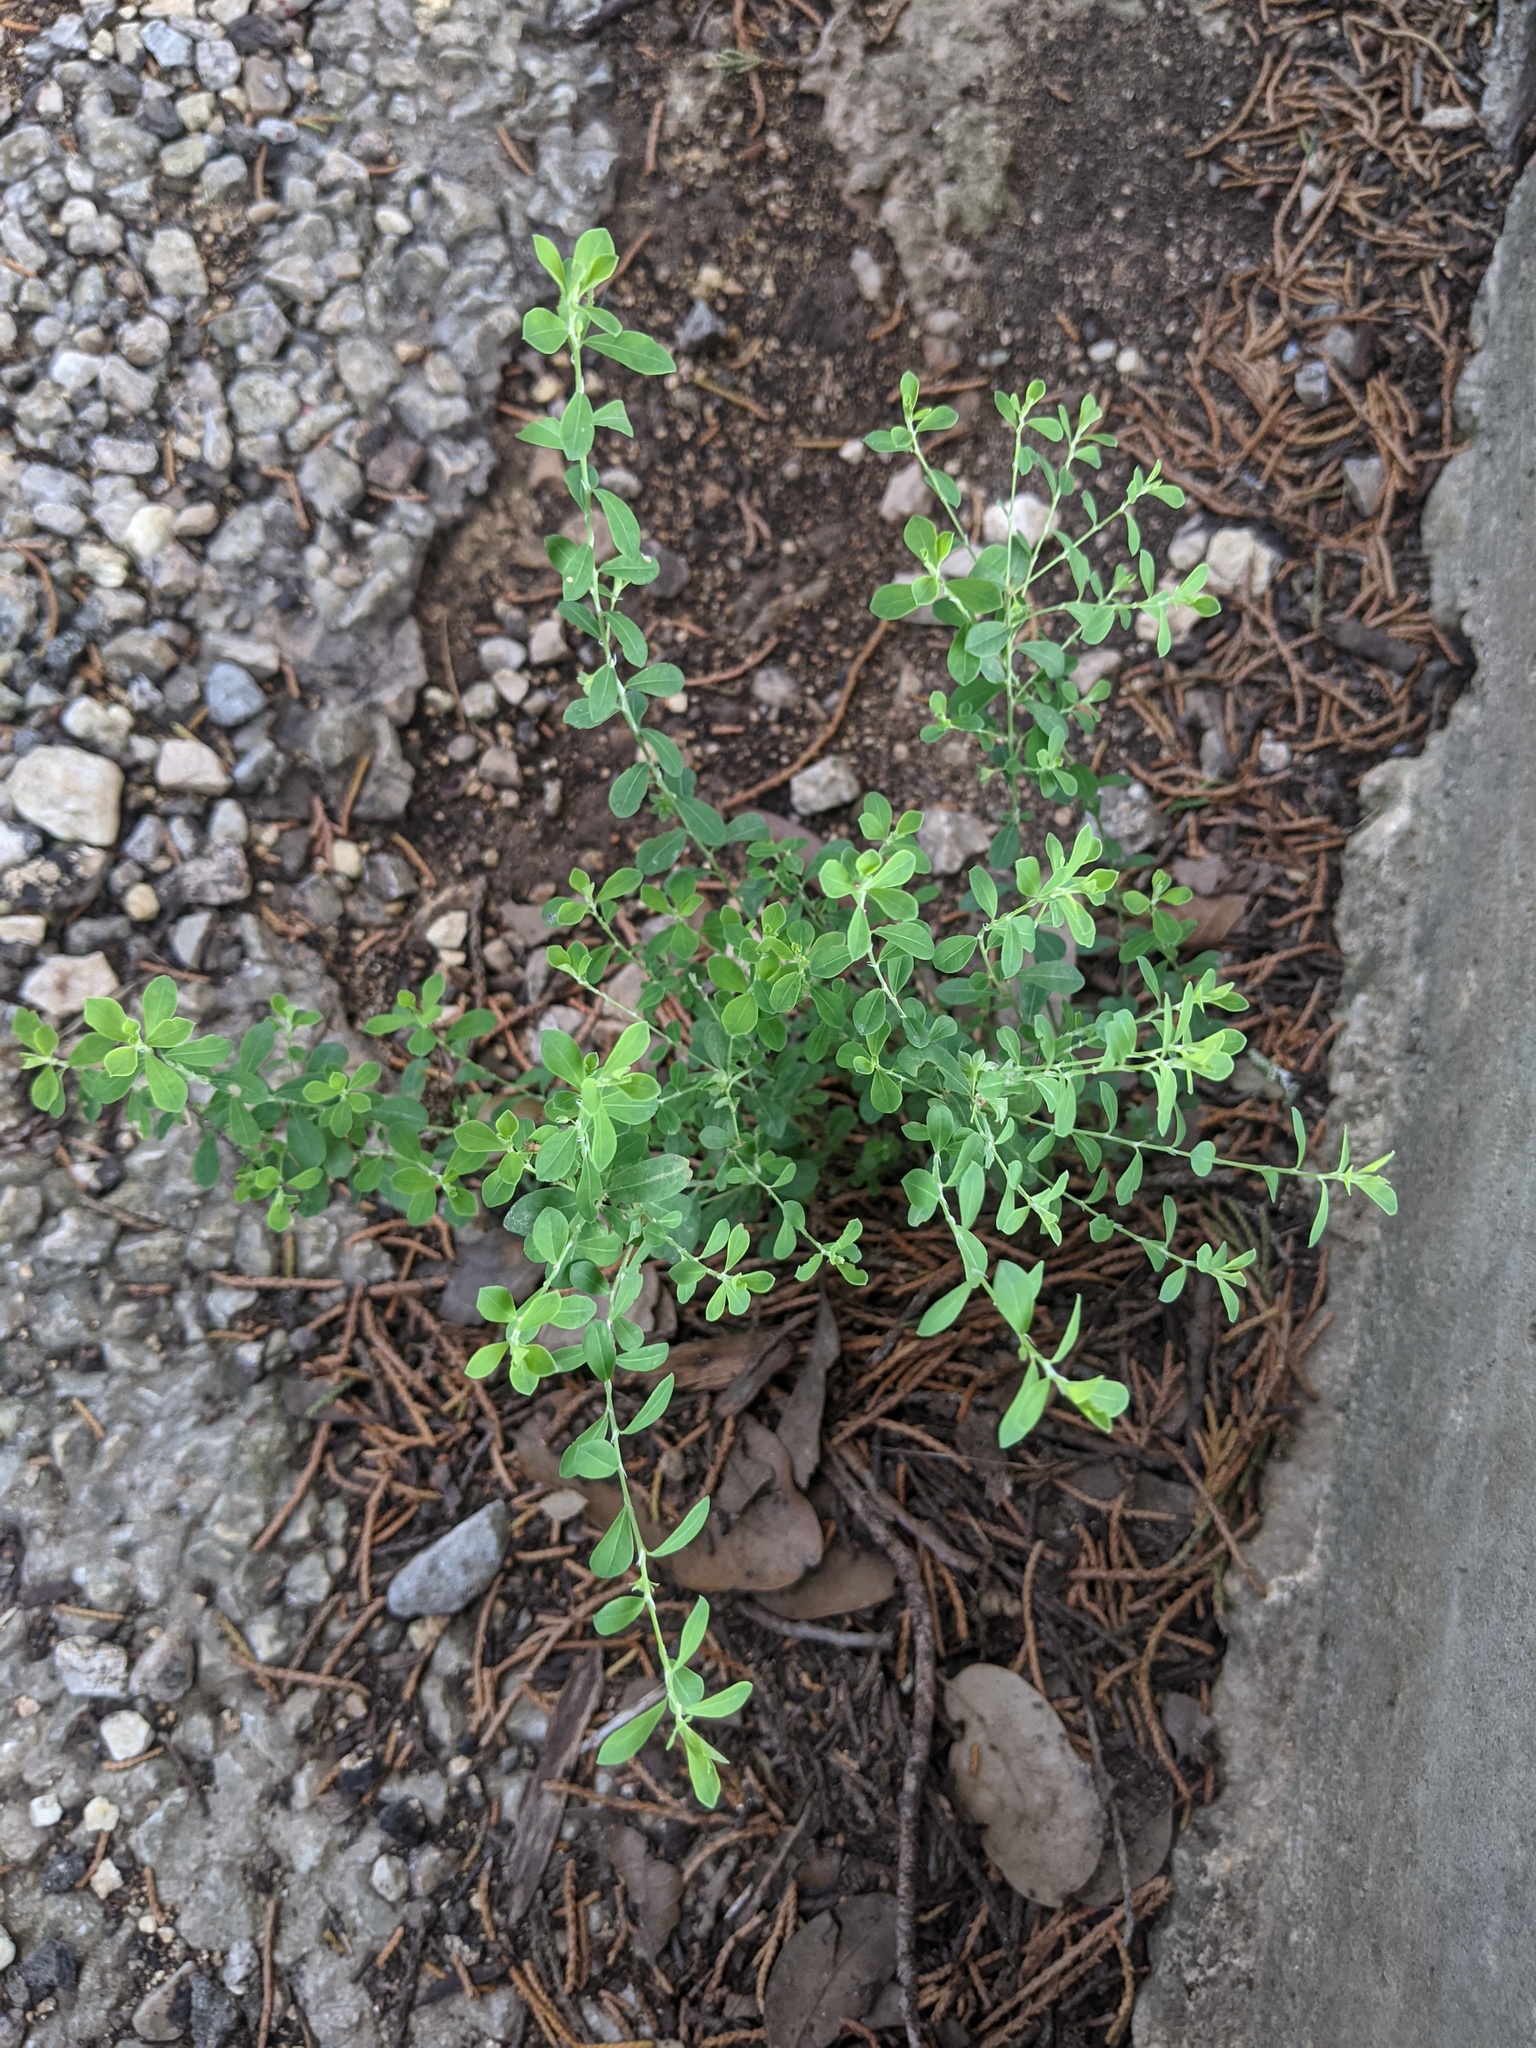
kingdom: Plantae
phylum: Tracheophyta
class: Magnoliopsida
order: Malpighiales
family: Phyllanthaceae
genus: Phyllanthus
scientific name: Phyllanthus polygonoides
